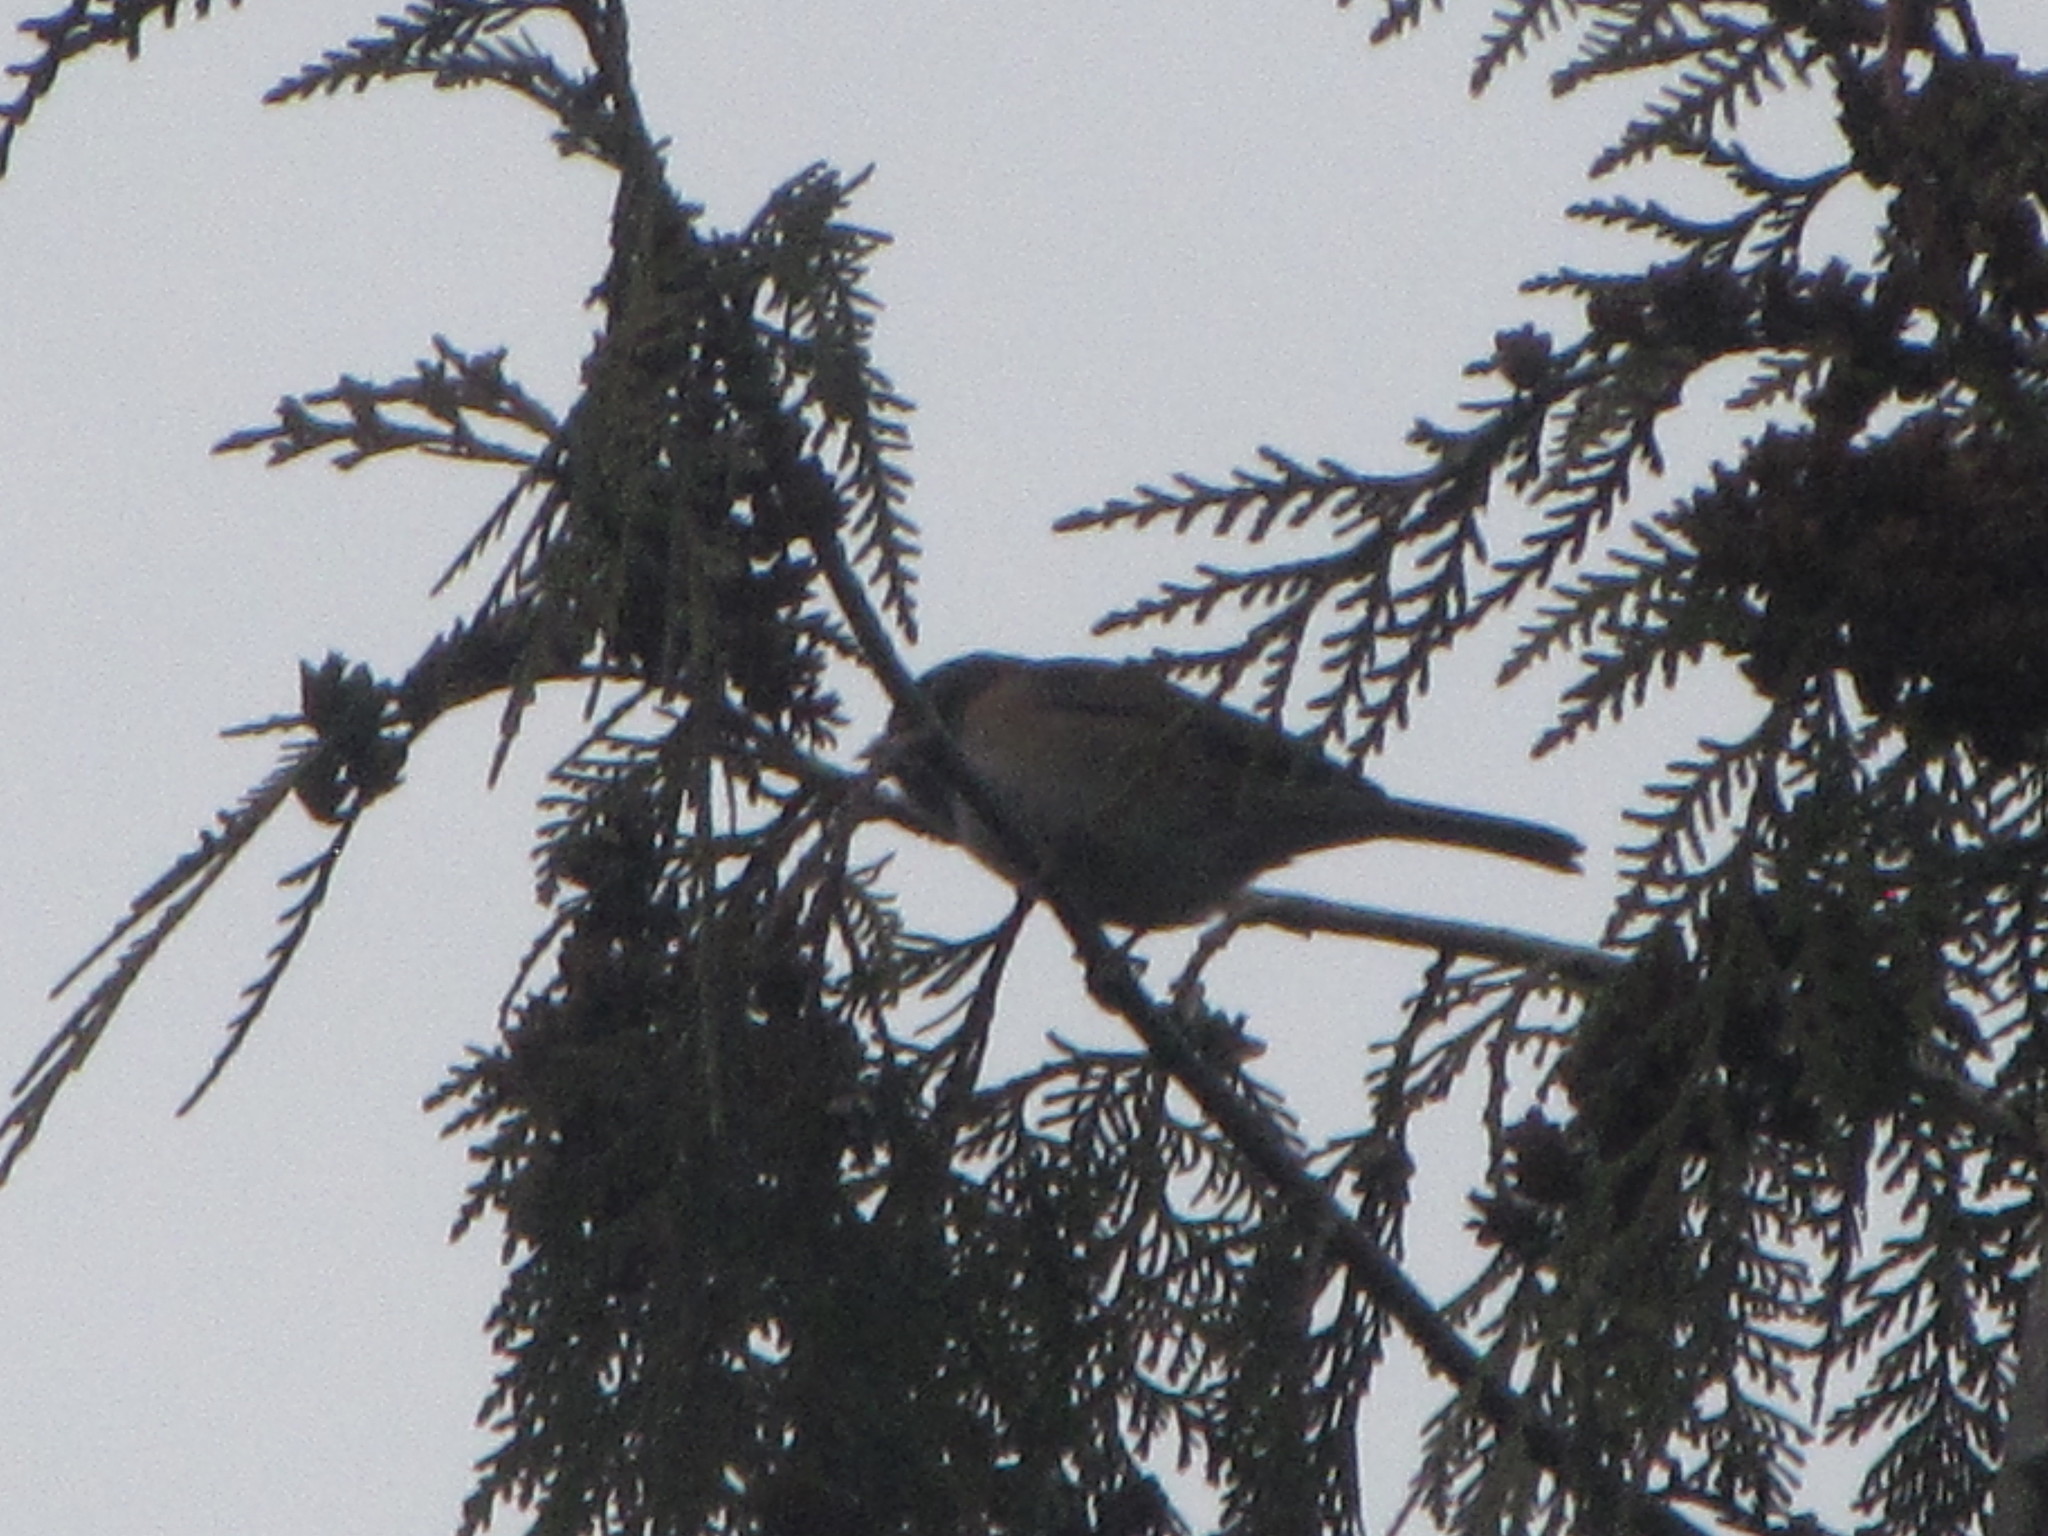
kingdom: Animalia
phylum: Chordata
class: Aves
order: Passeriformes
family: Passerellidae
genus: Junco
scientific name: Junco hyemalis
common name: Dark-eyed junco
